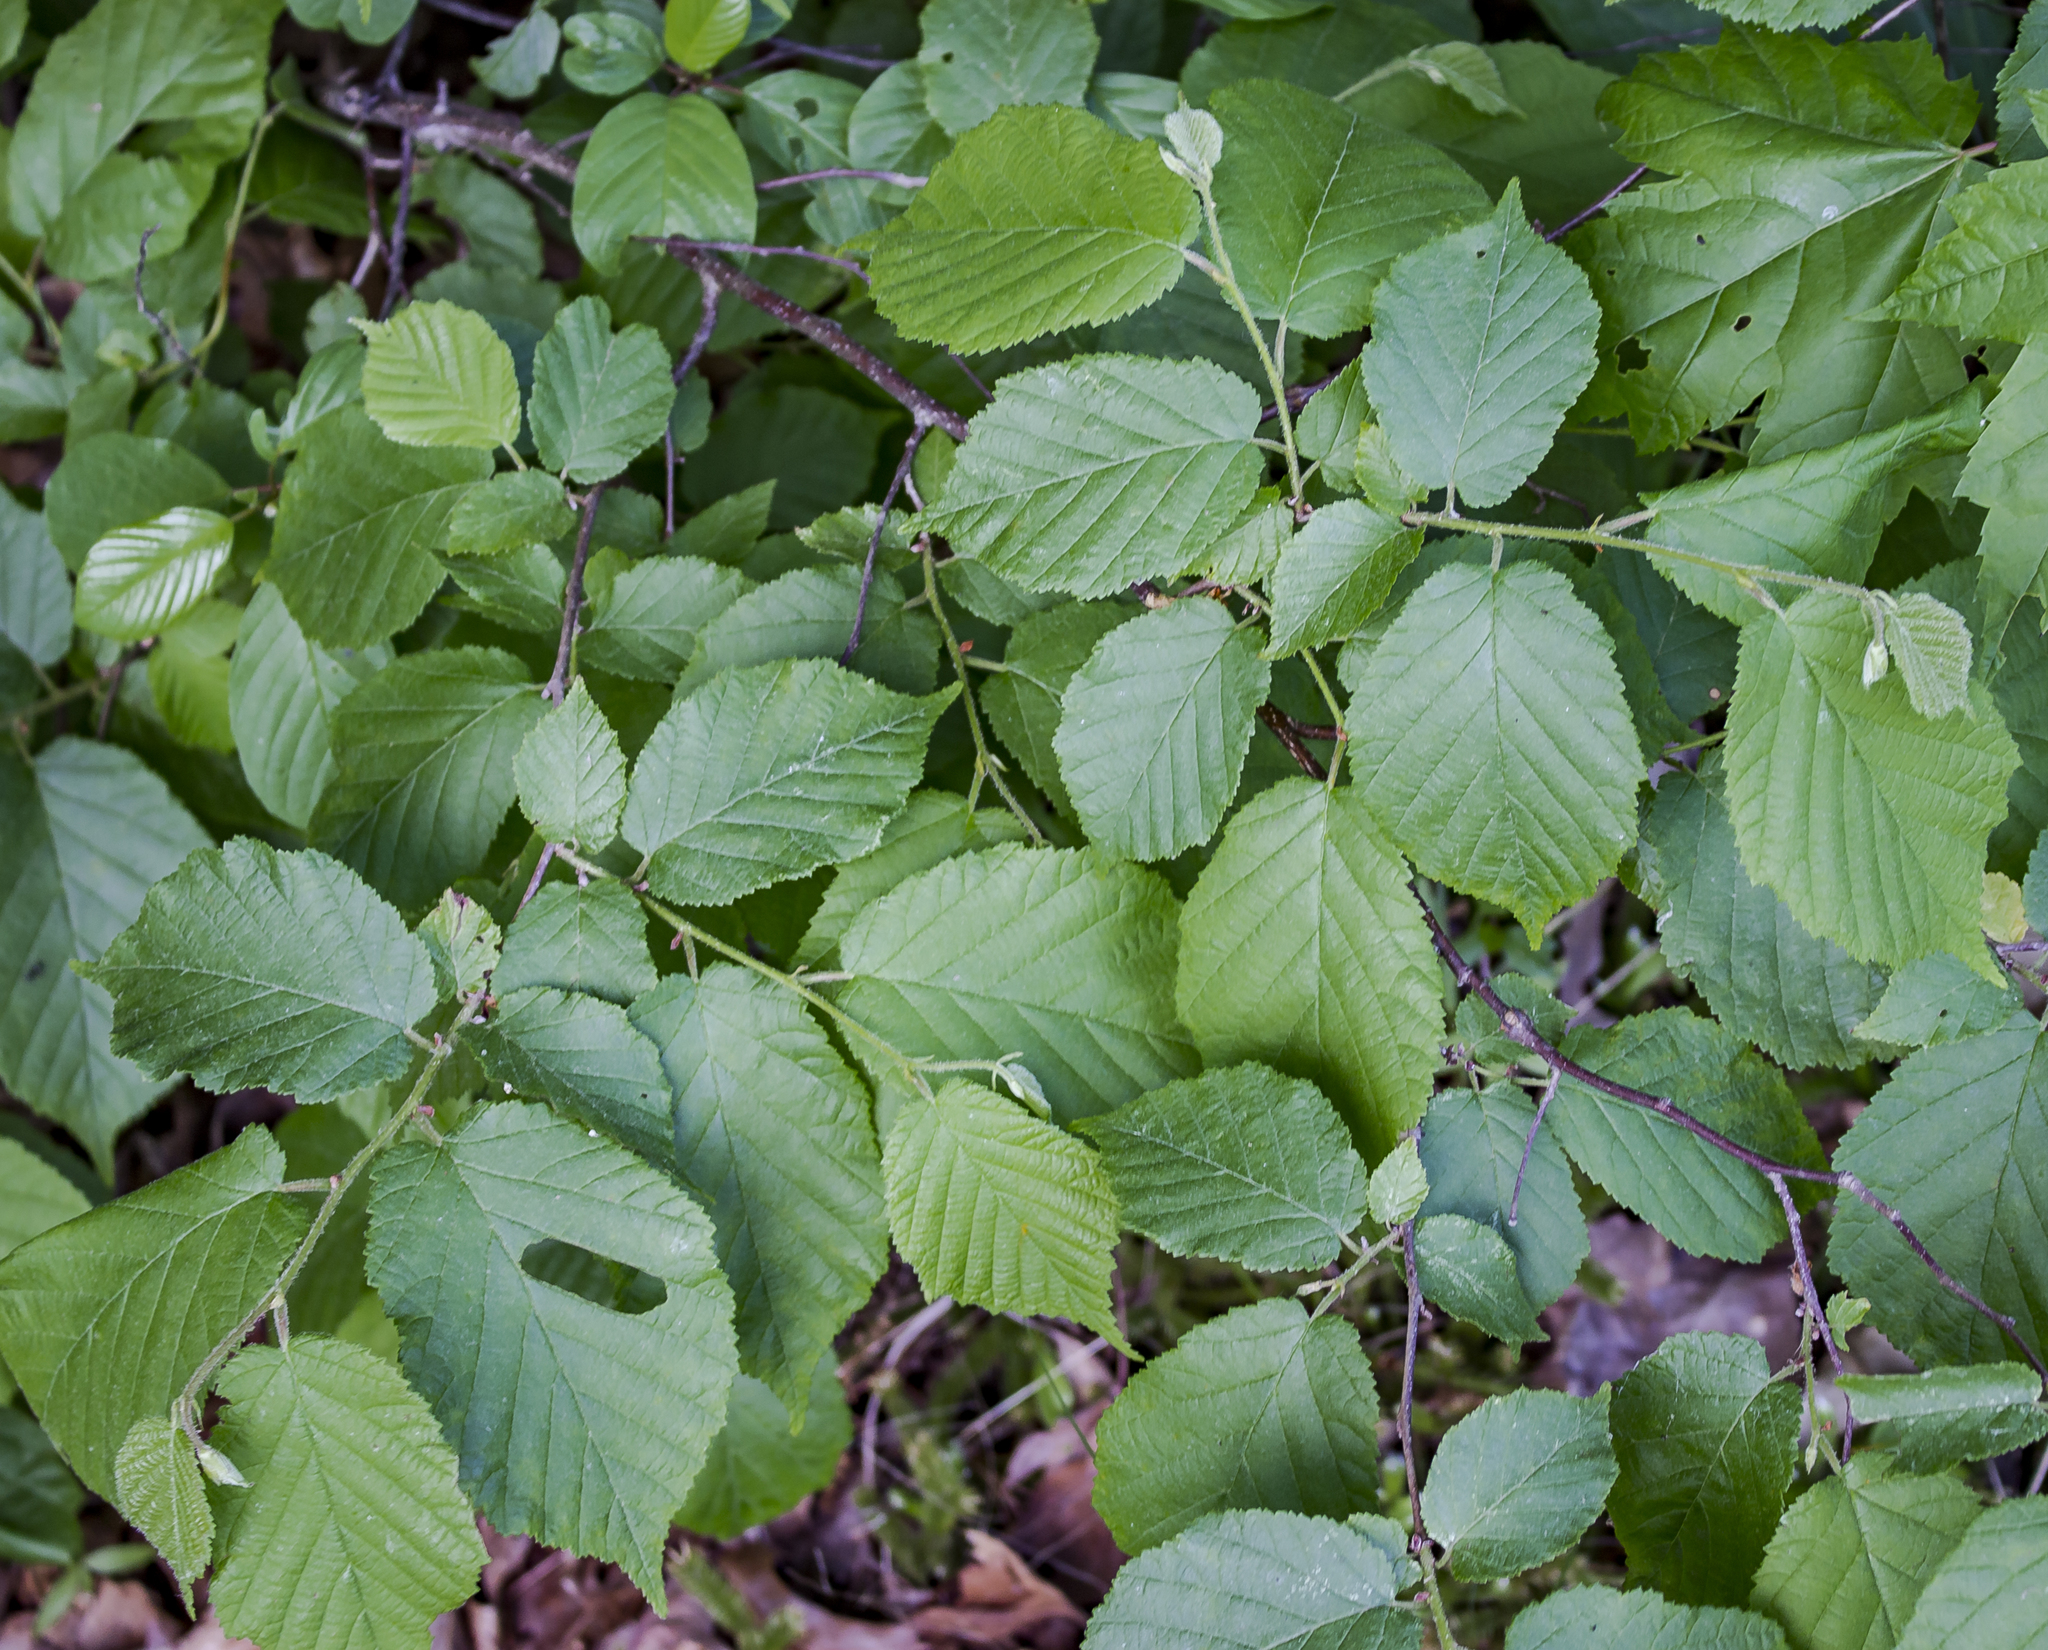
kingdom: Plantae
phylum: Tracheophyta
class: Magnoliopsida
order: Fagales
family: Betulaceae
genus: Corylus
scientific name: Corylus americana
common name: American hazel
